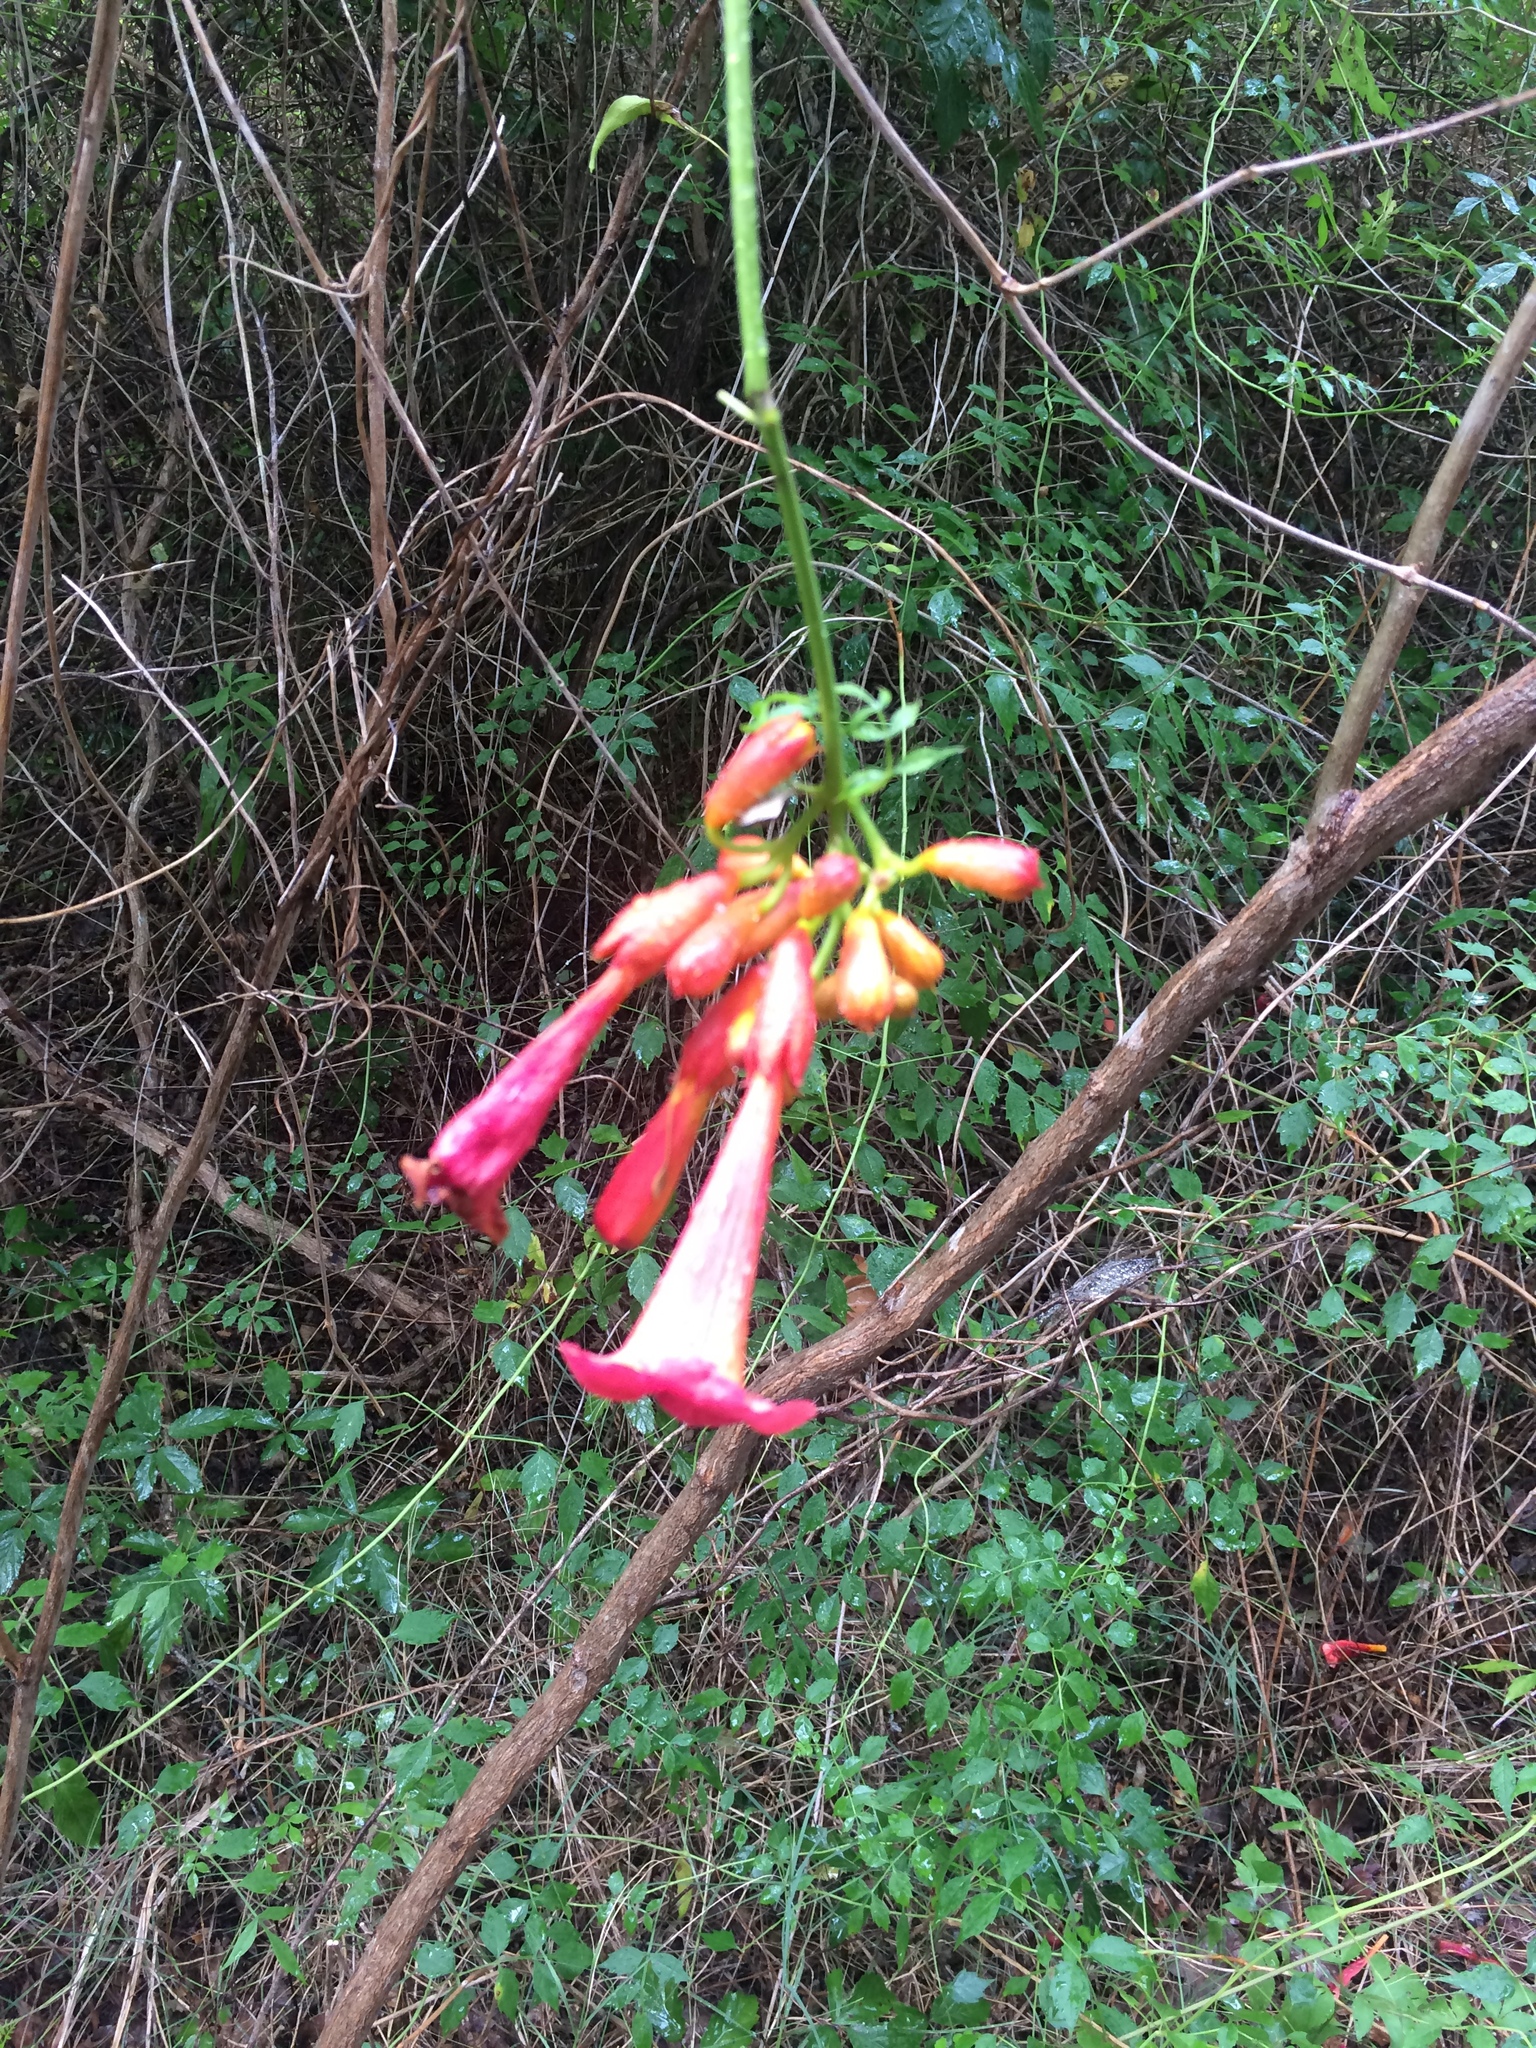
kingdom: Plantae
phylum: Tracheophyta
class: Magnoliopsida
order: Lamiales
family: Bignoniaceae
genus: Campsis
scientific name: Campsis radicans
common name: Trumpet-creeper
